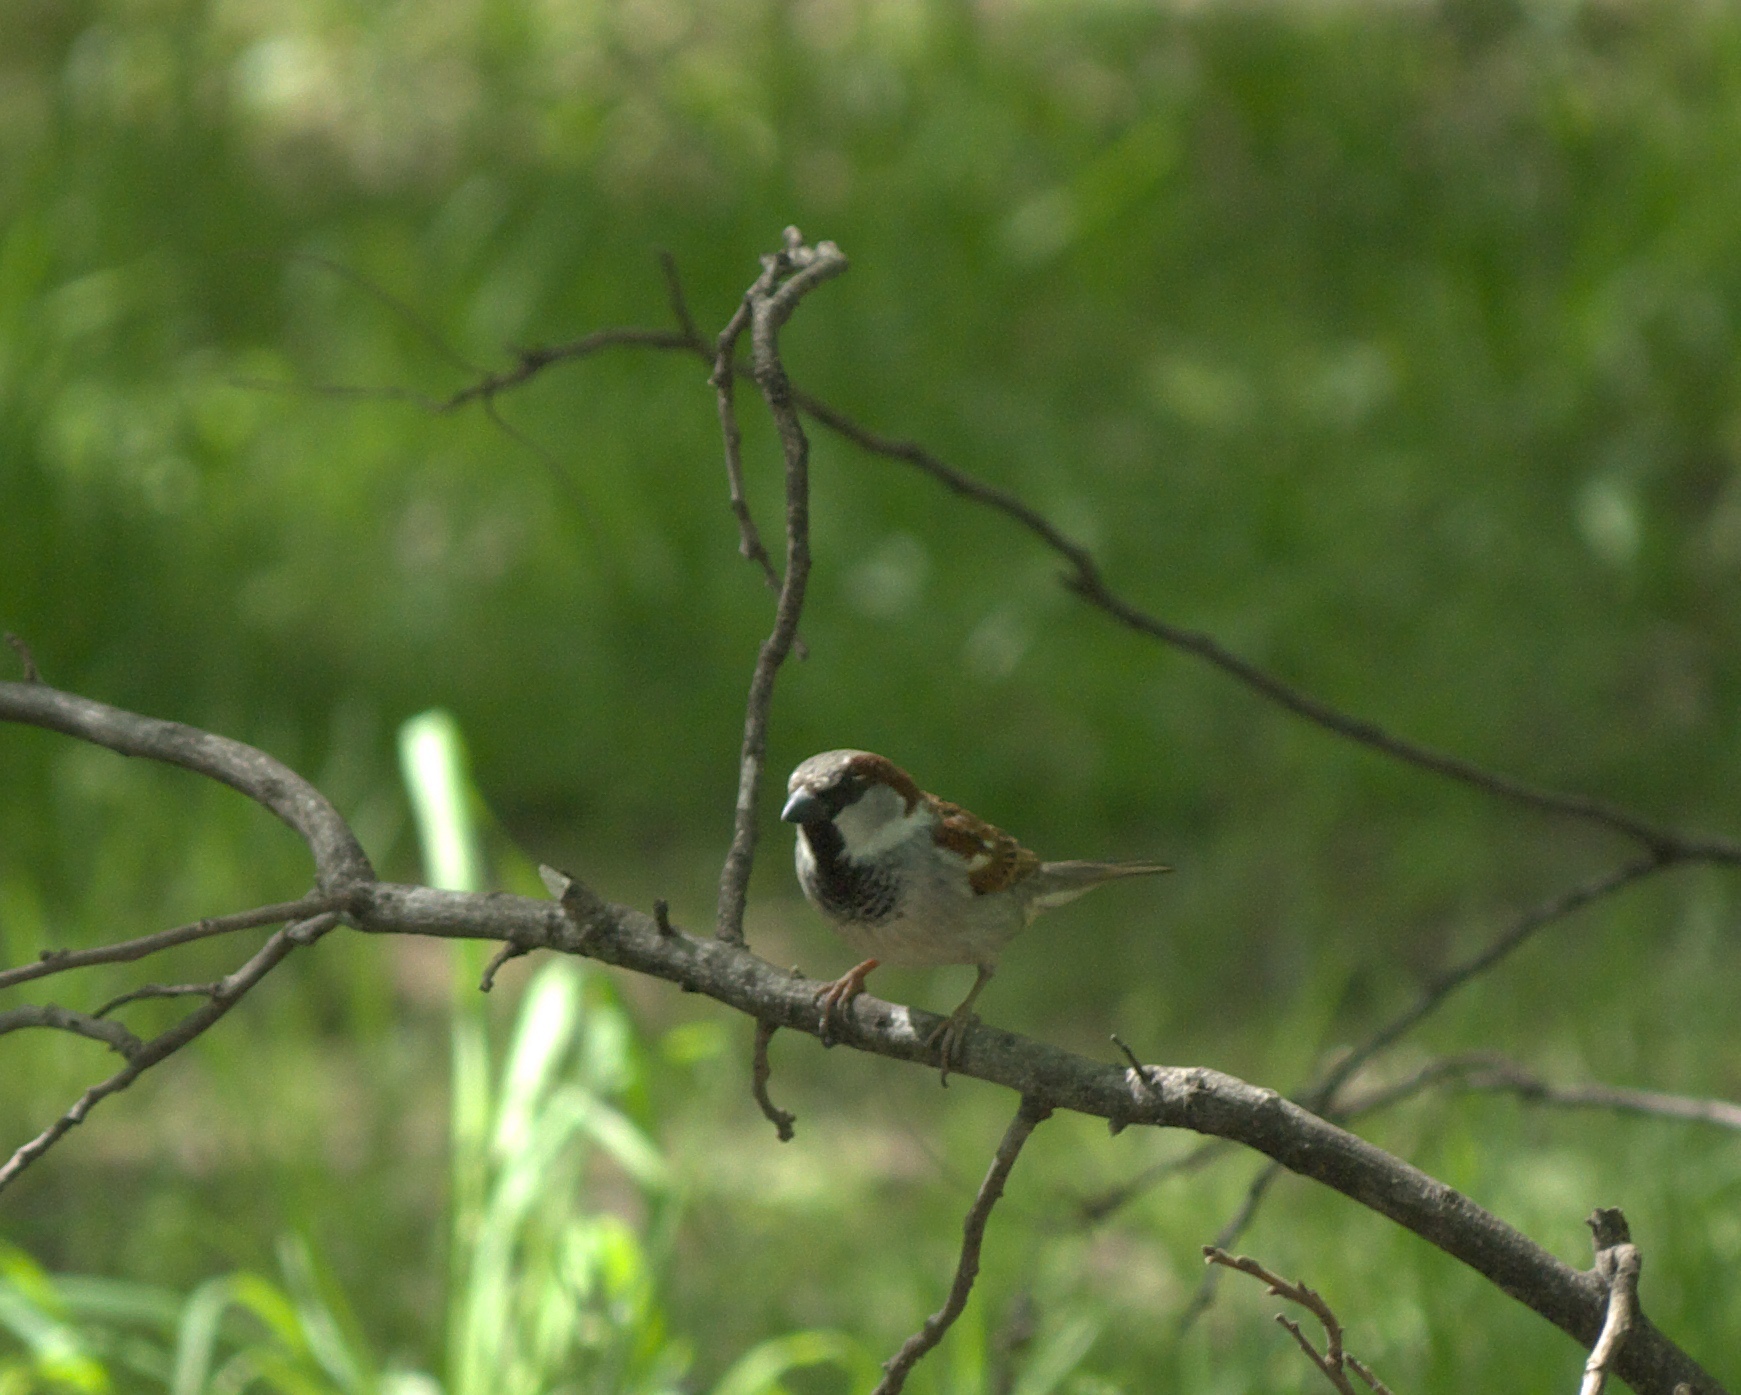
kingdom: Animalia
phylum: Chordata
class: Aves
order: Passeriformes
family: Passeridae
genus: Passer
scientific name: Passer domesticus
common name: House sparrow
